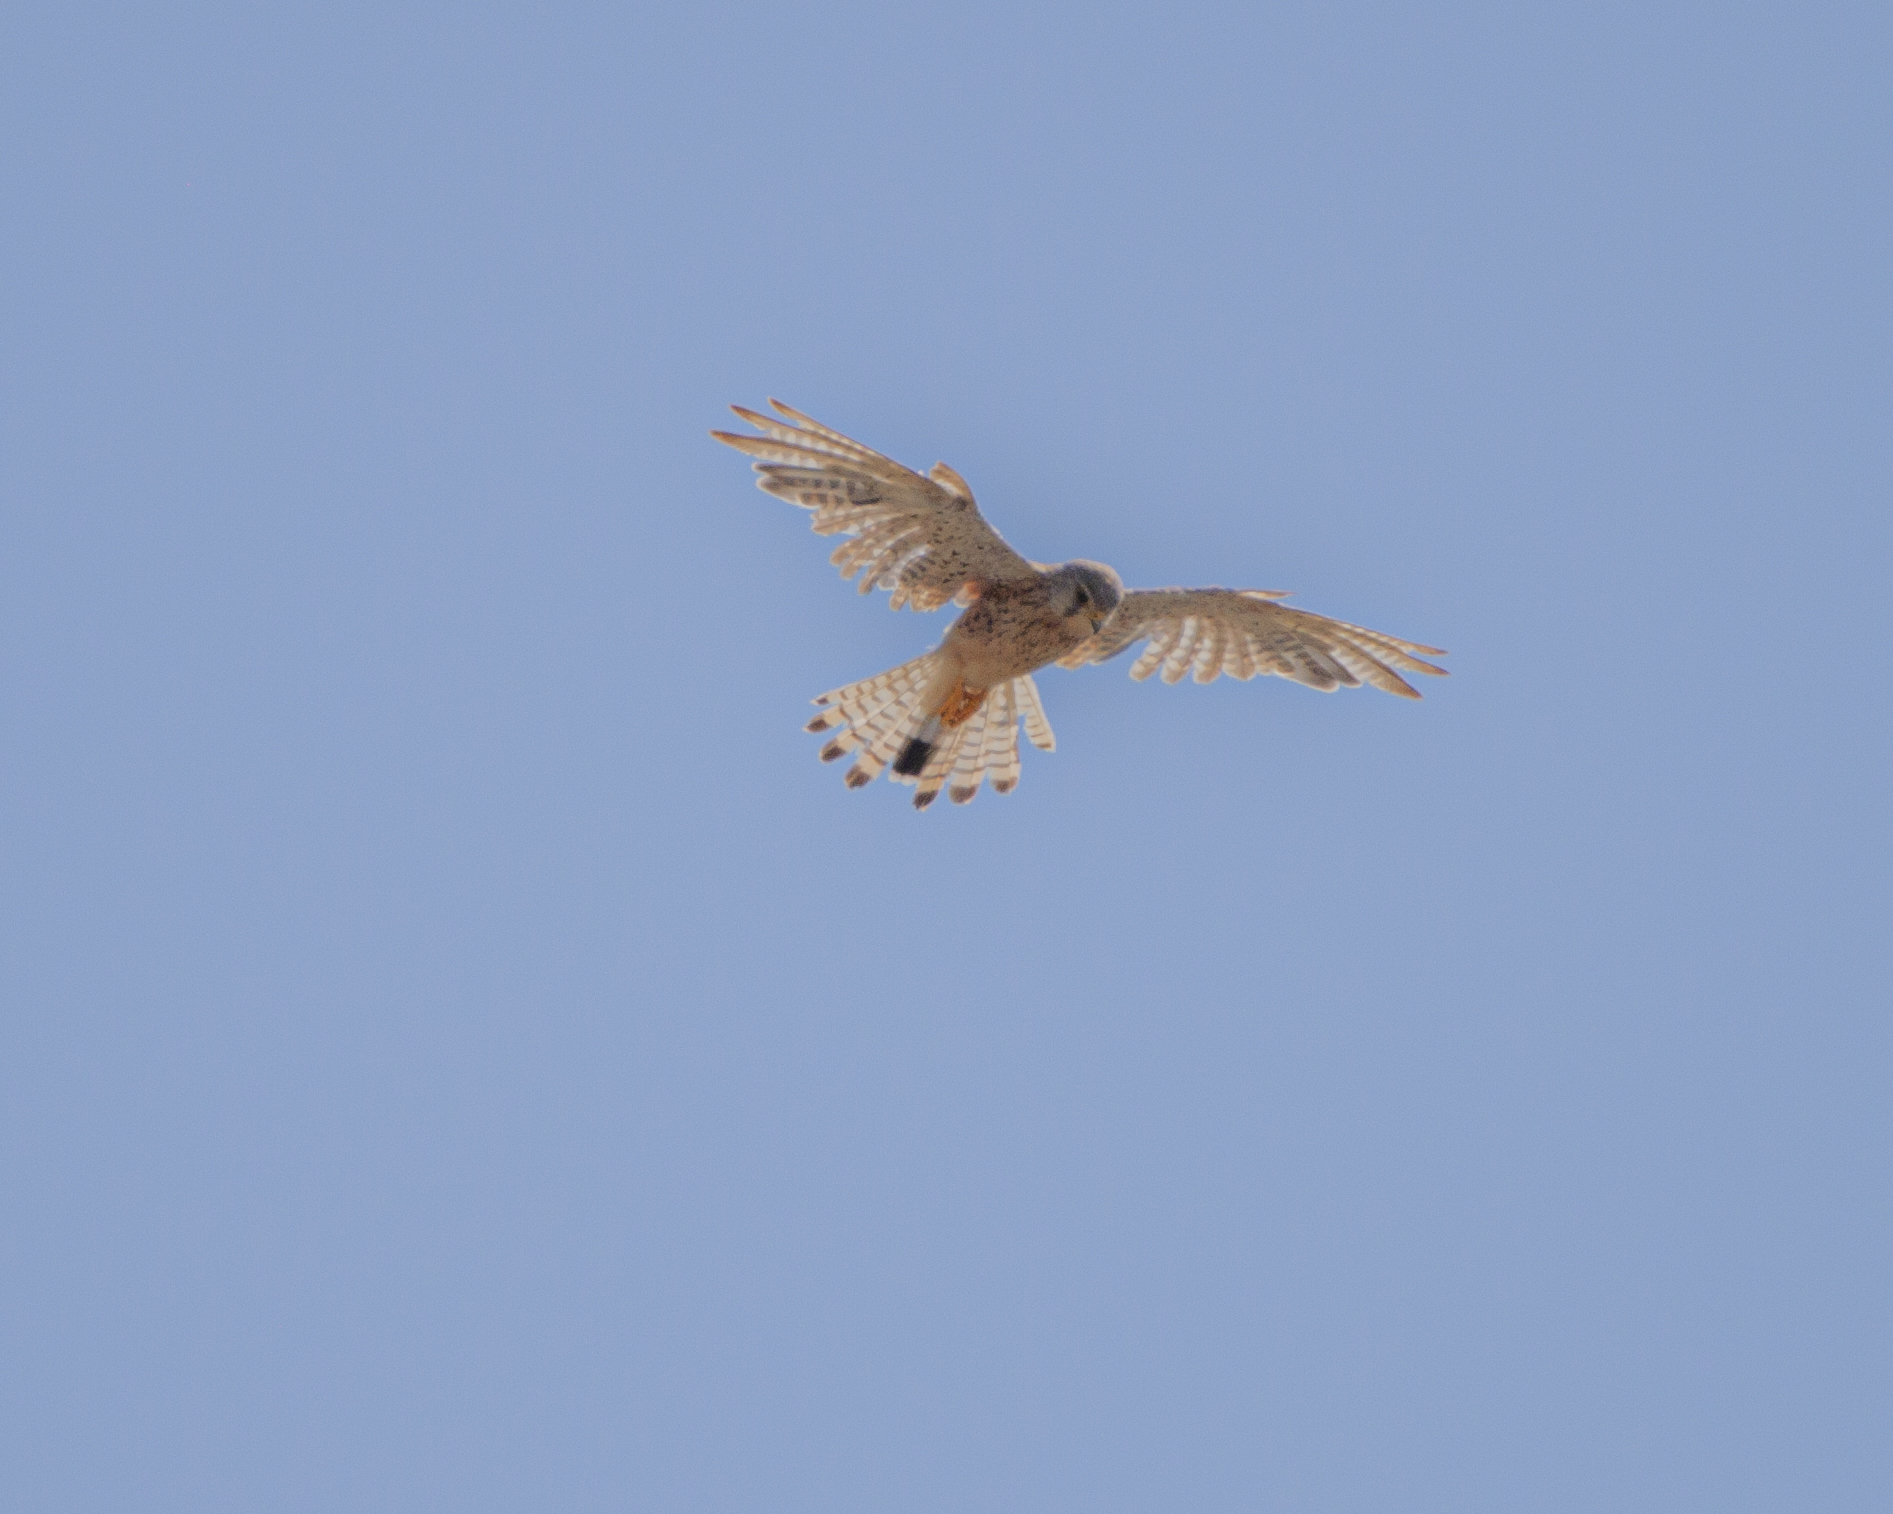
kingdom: Animalia
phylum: Chordata
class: Aves
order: Falconiformes
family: Falconidae
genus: Falco
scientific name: Falco tinnunculus
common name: Common kestrel
